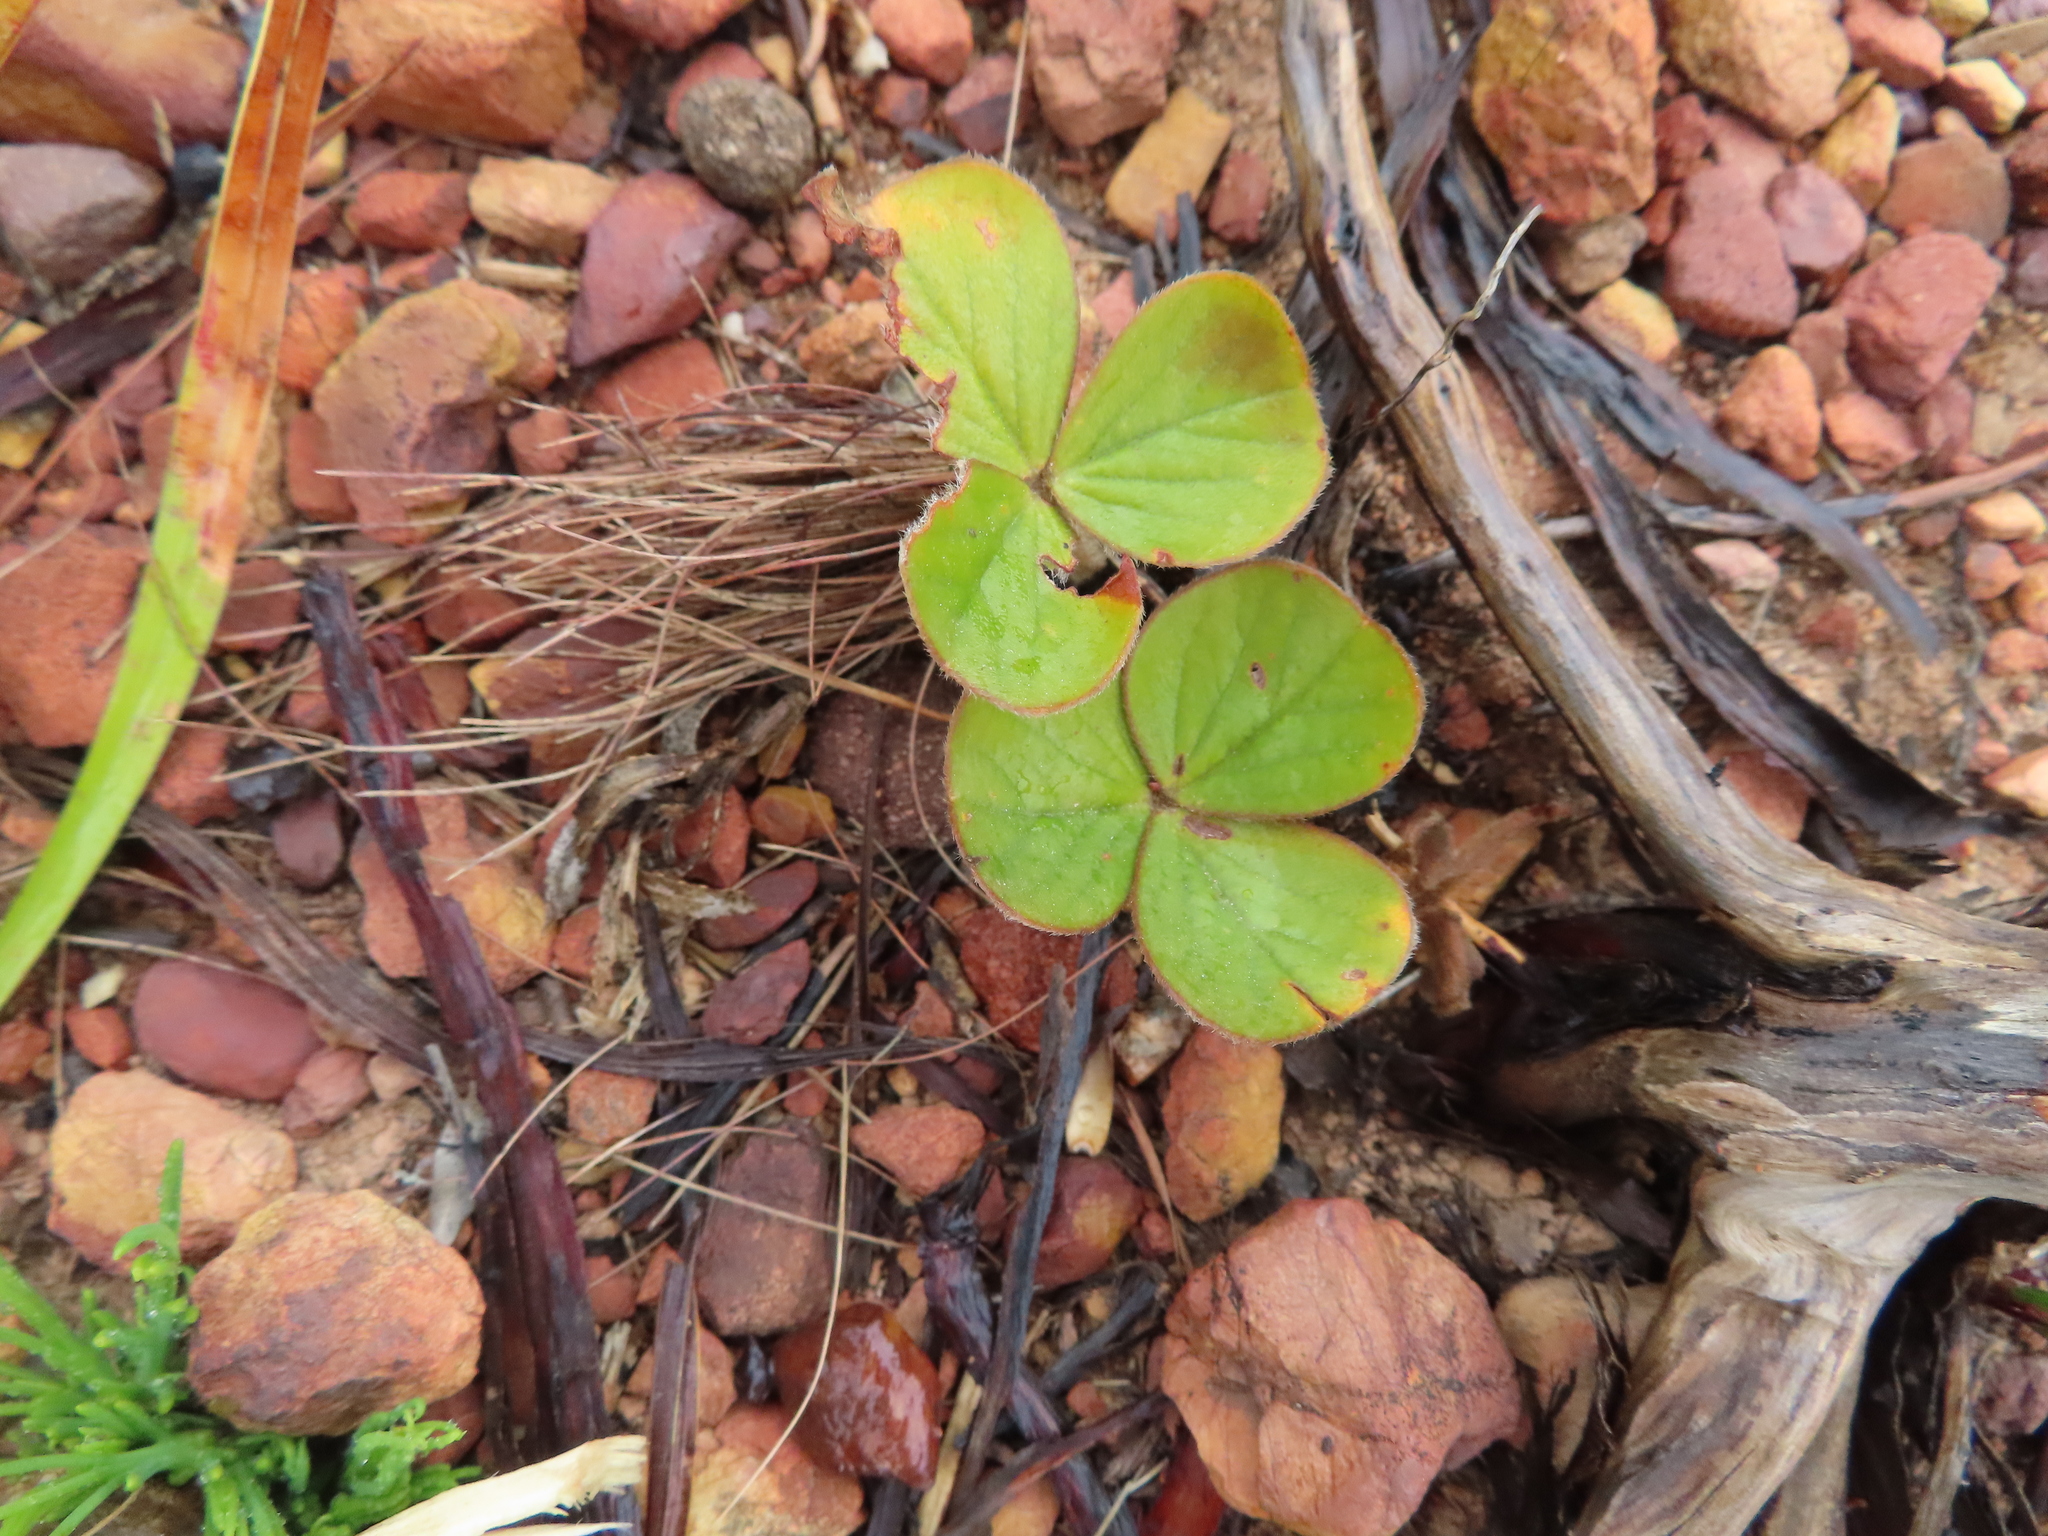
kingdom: Plantae
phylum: Tracheophyta
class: Magnoliopsida
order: Oxalidales
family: Oxalidaceae
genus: Oxalis
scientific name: Oxalis truncatula
